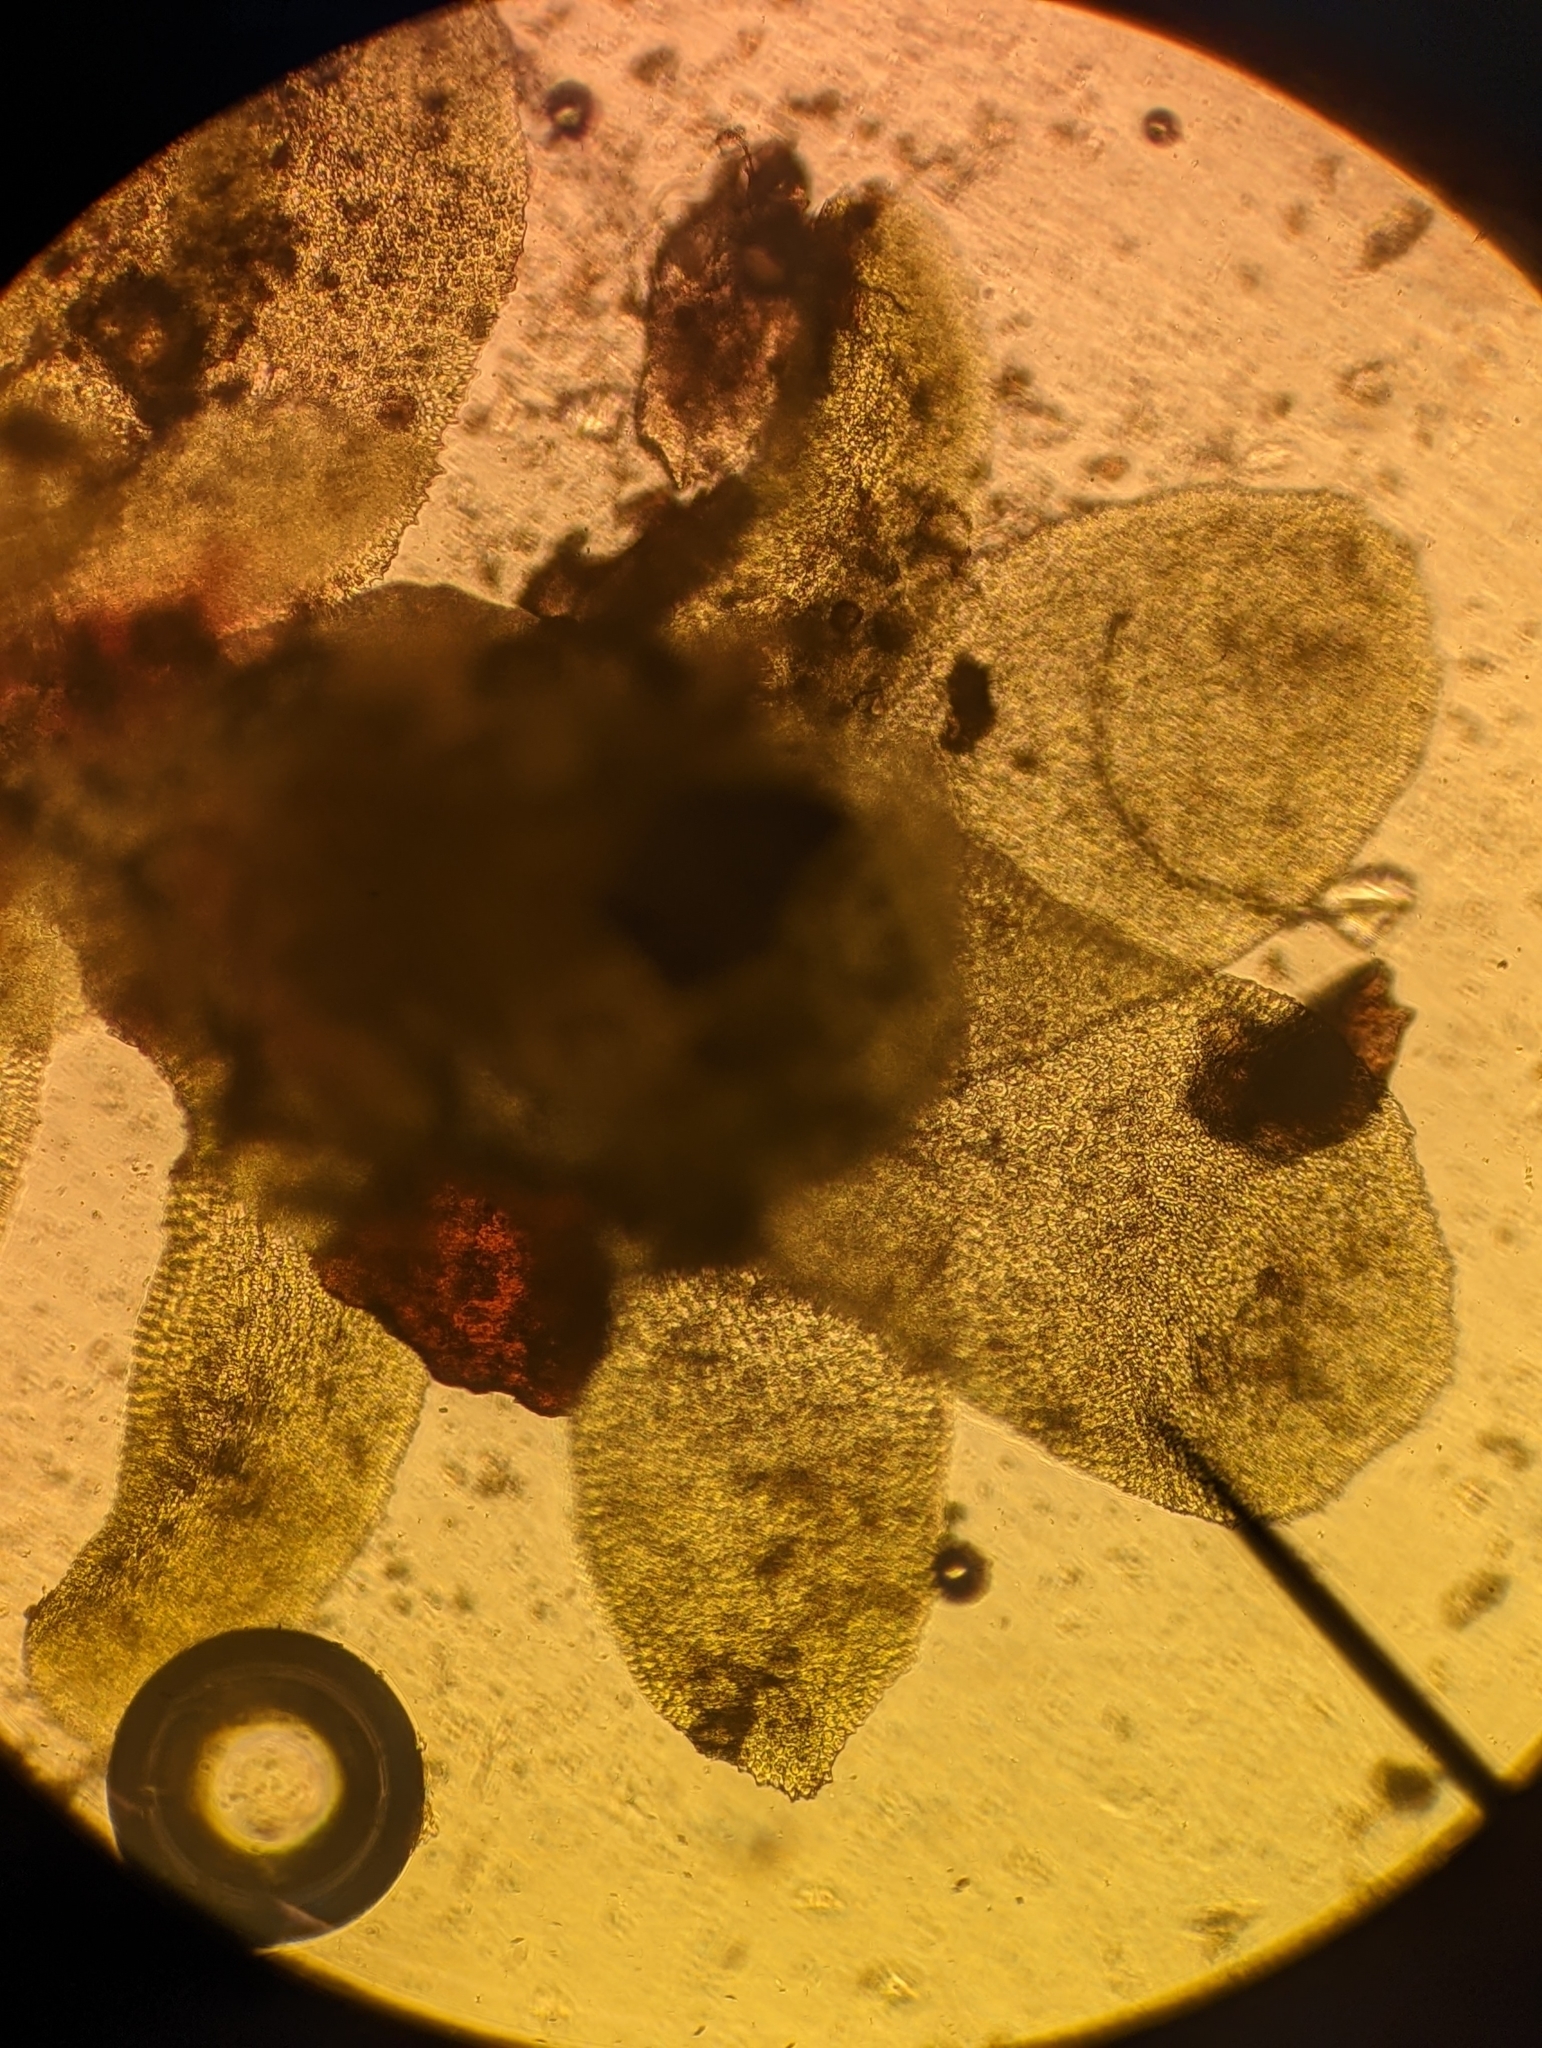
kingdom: Plantae
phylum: Marchantiophyta
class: Jungermanniopsida
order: Jungermanniales
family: Scapaniaceae
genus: Diplophyllum
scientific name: Diplophyllum obtusifolium
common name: Blunt-leaved earwort
